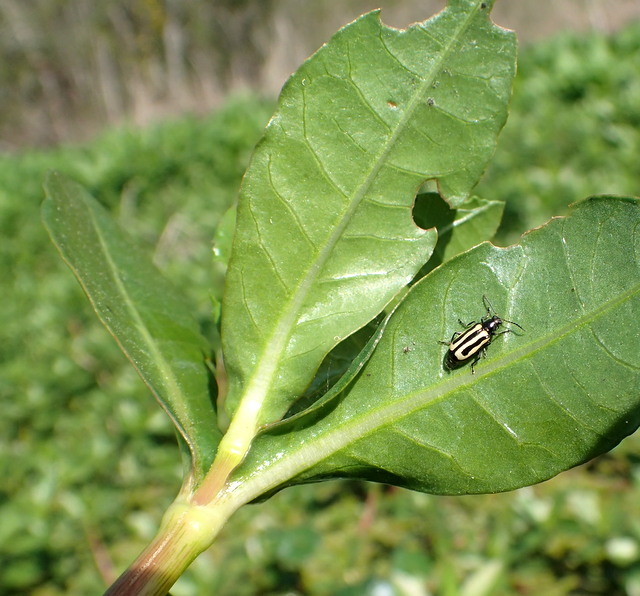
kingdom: Animalia
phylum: Arthropoda
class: Insecta
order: Coleoptera
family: Chrysomelidae
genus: Agasicles
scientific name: Agasicles hygrophila
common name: Alligatorweed flea beetle
